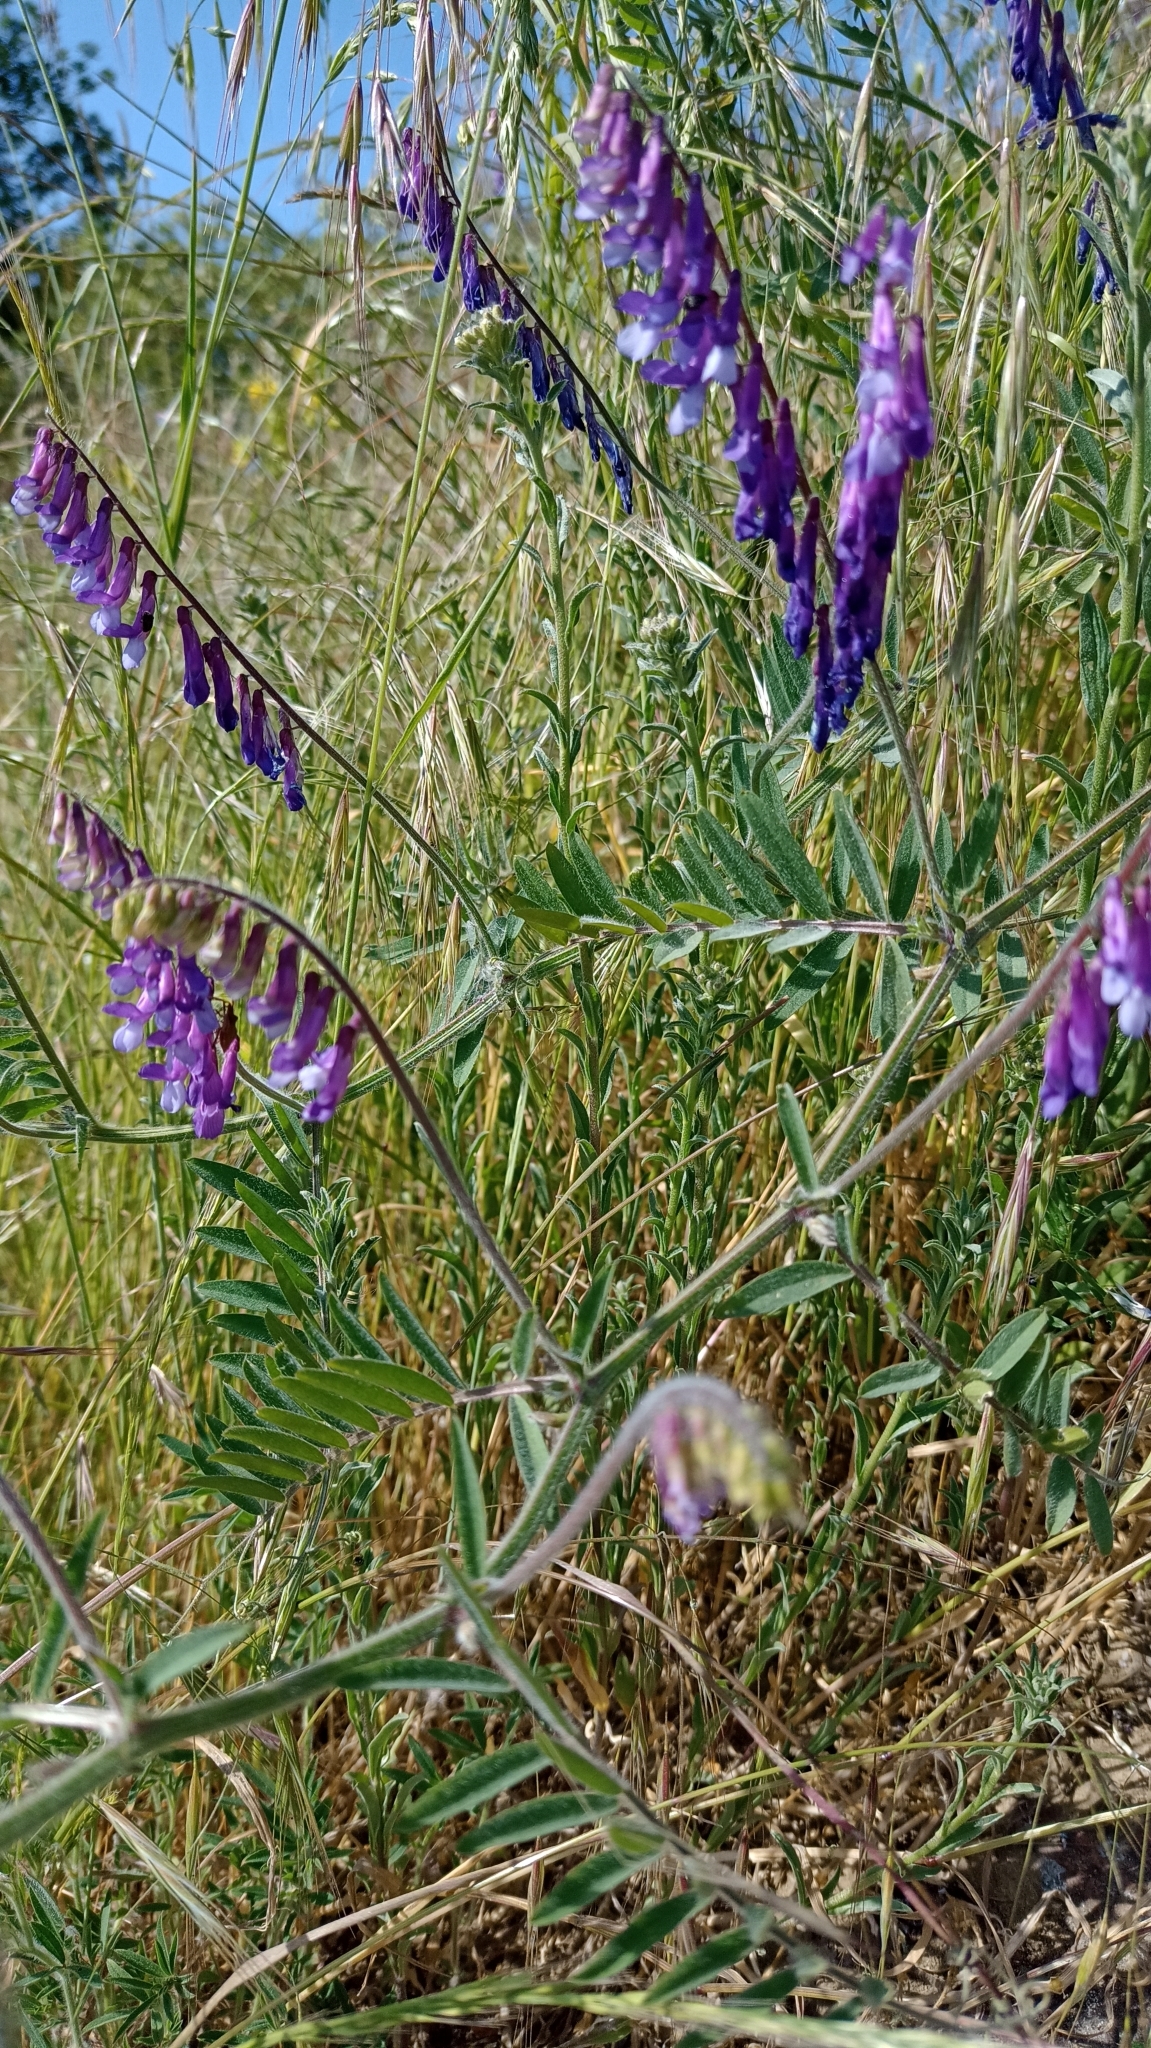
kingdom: Plantae
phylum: Tracheophyta
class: Magnoliopsida
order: Fabales
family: Fabaceae
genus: Vicia
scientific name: Vicia villosa
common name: Fodder vetch
